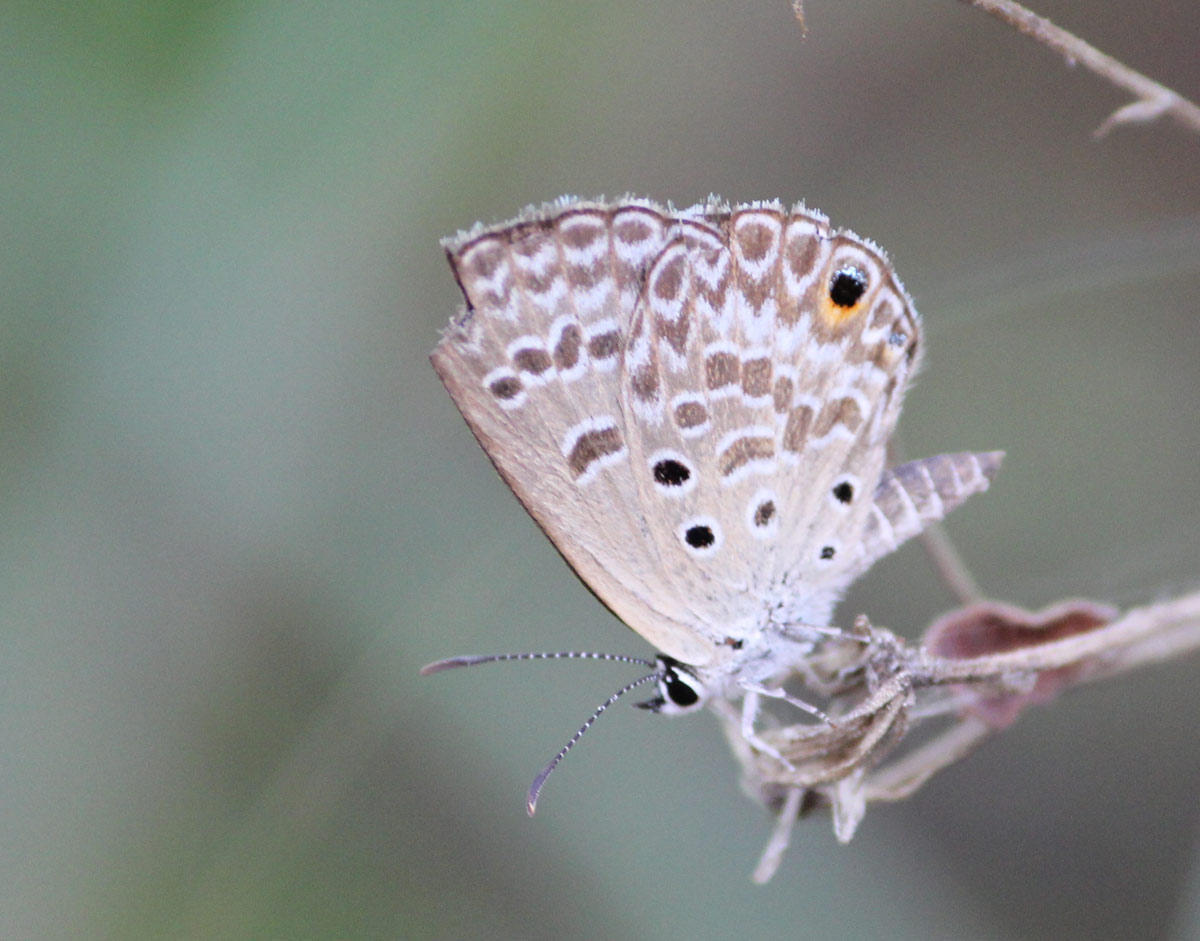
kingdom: Animalia
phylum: Arthropoda
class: Insecta
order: Lepidoptera
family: Lycaenidae
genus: Euchrysops
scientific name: Euchrysops subpallida
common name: Ashen smoky blue
